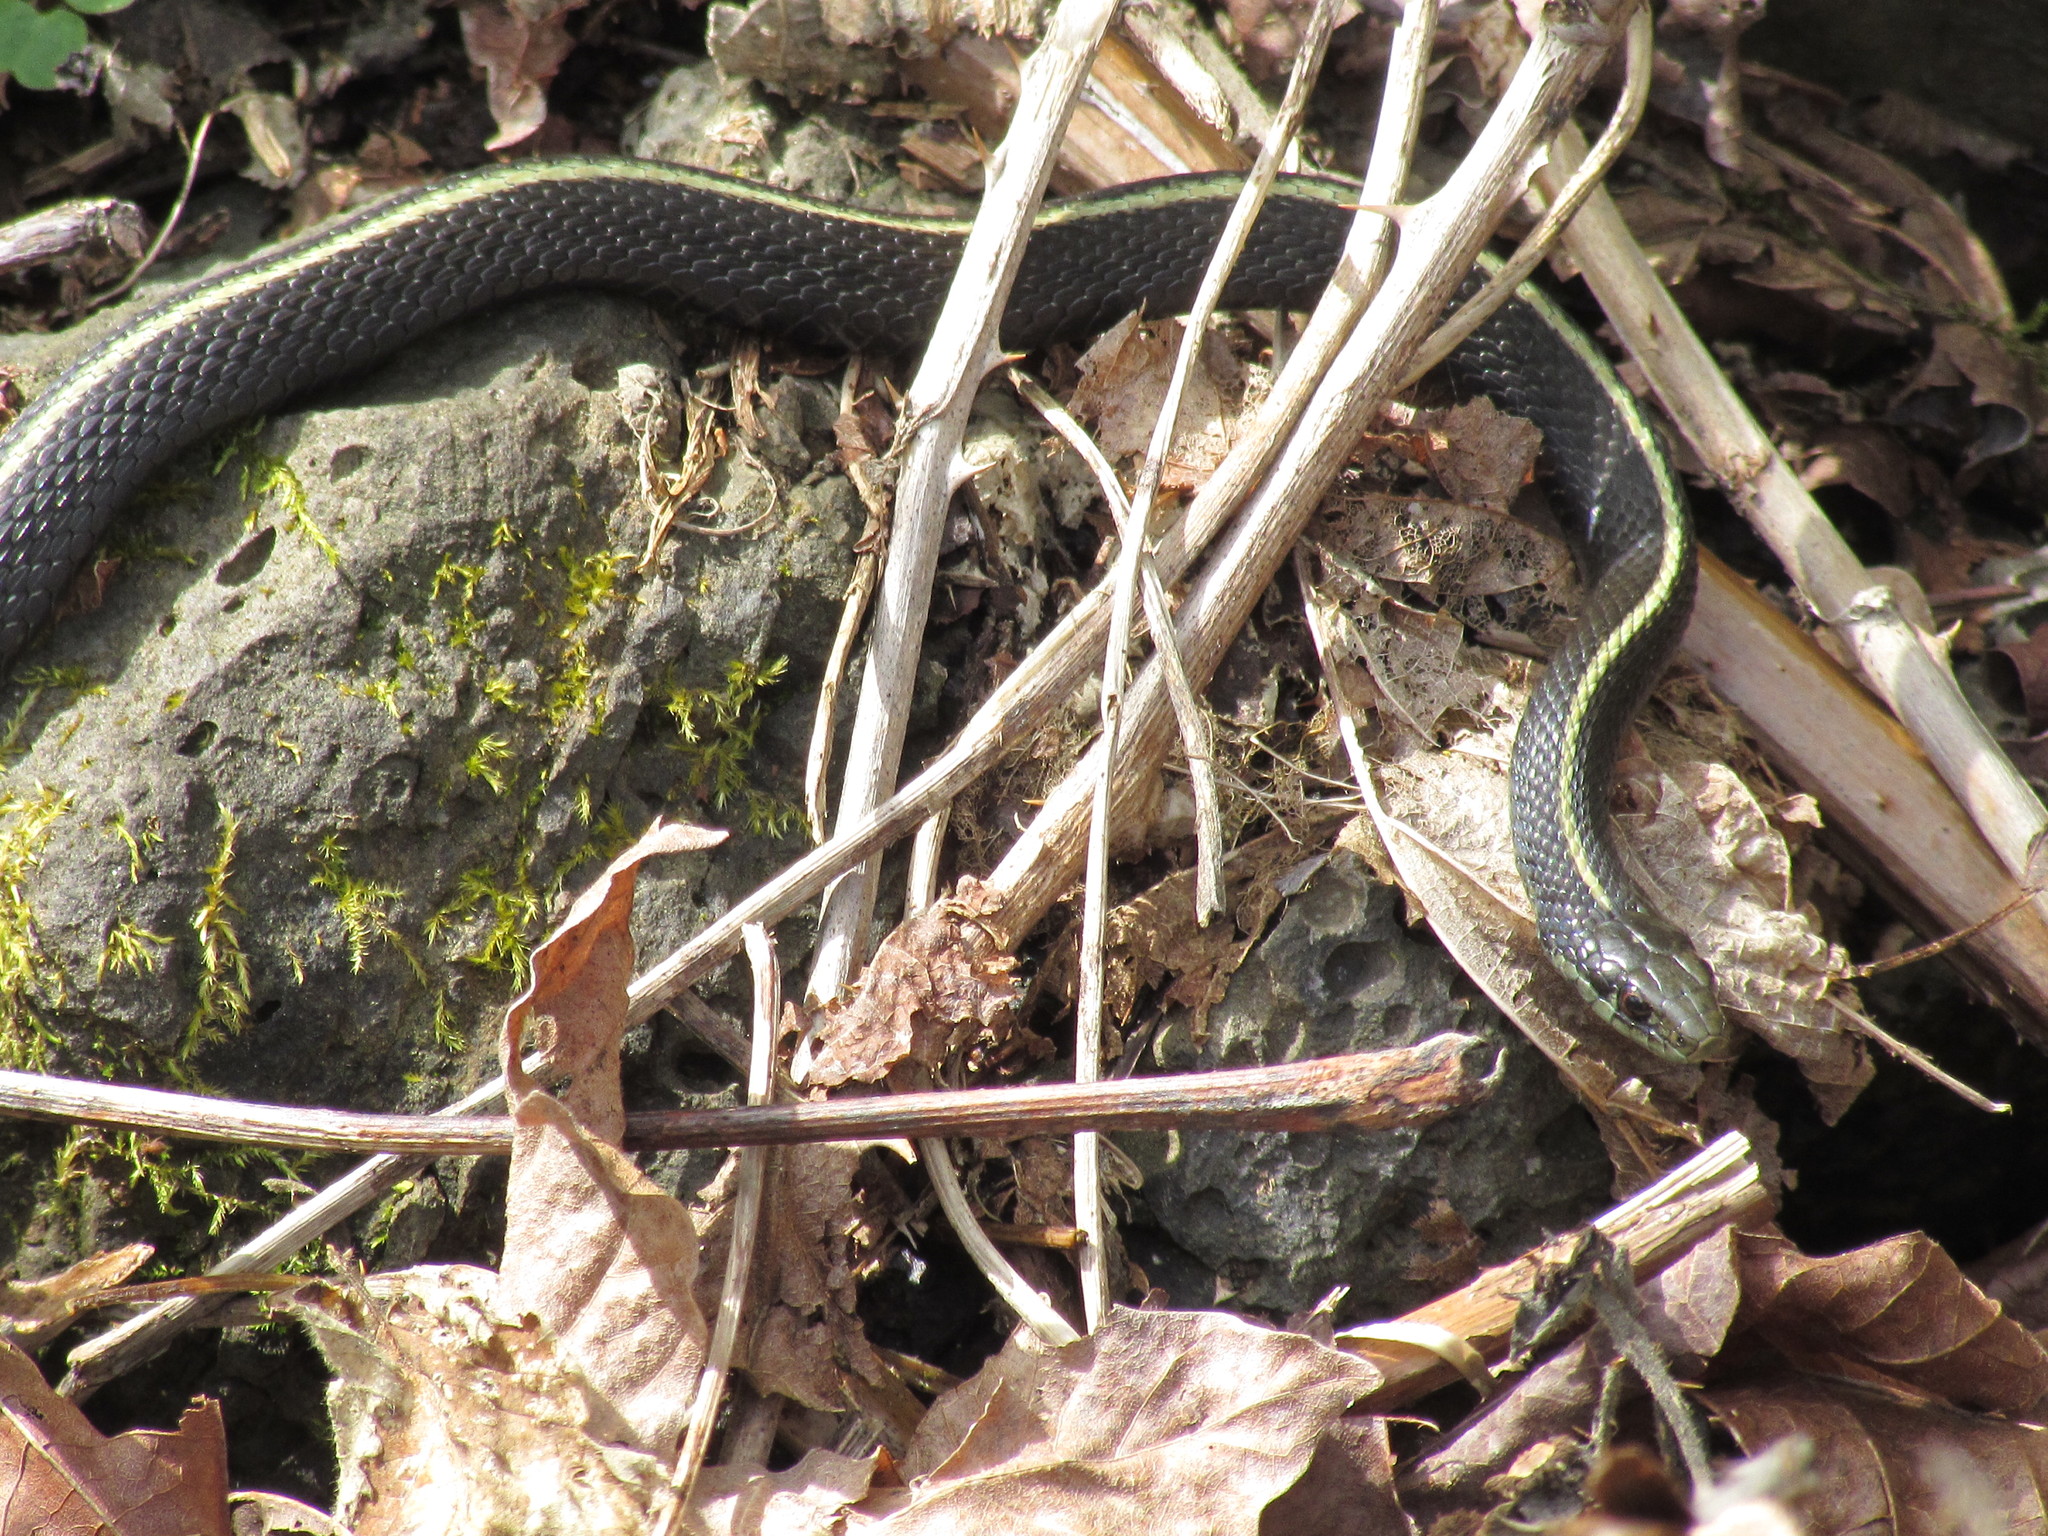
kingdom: Animalia
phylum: Chordata
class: Squamata
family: Colubridae
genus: Thamnophis
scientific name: Thamnophis ordinoides
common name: Northwestern garter snake
